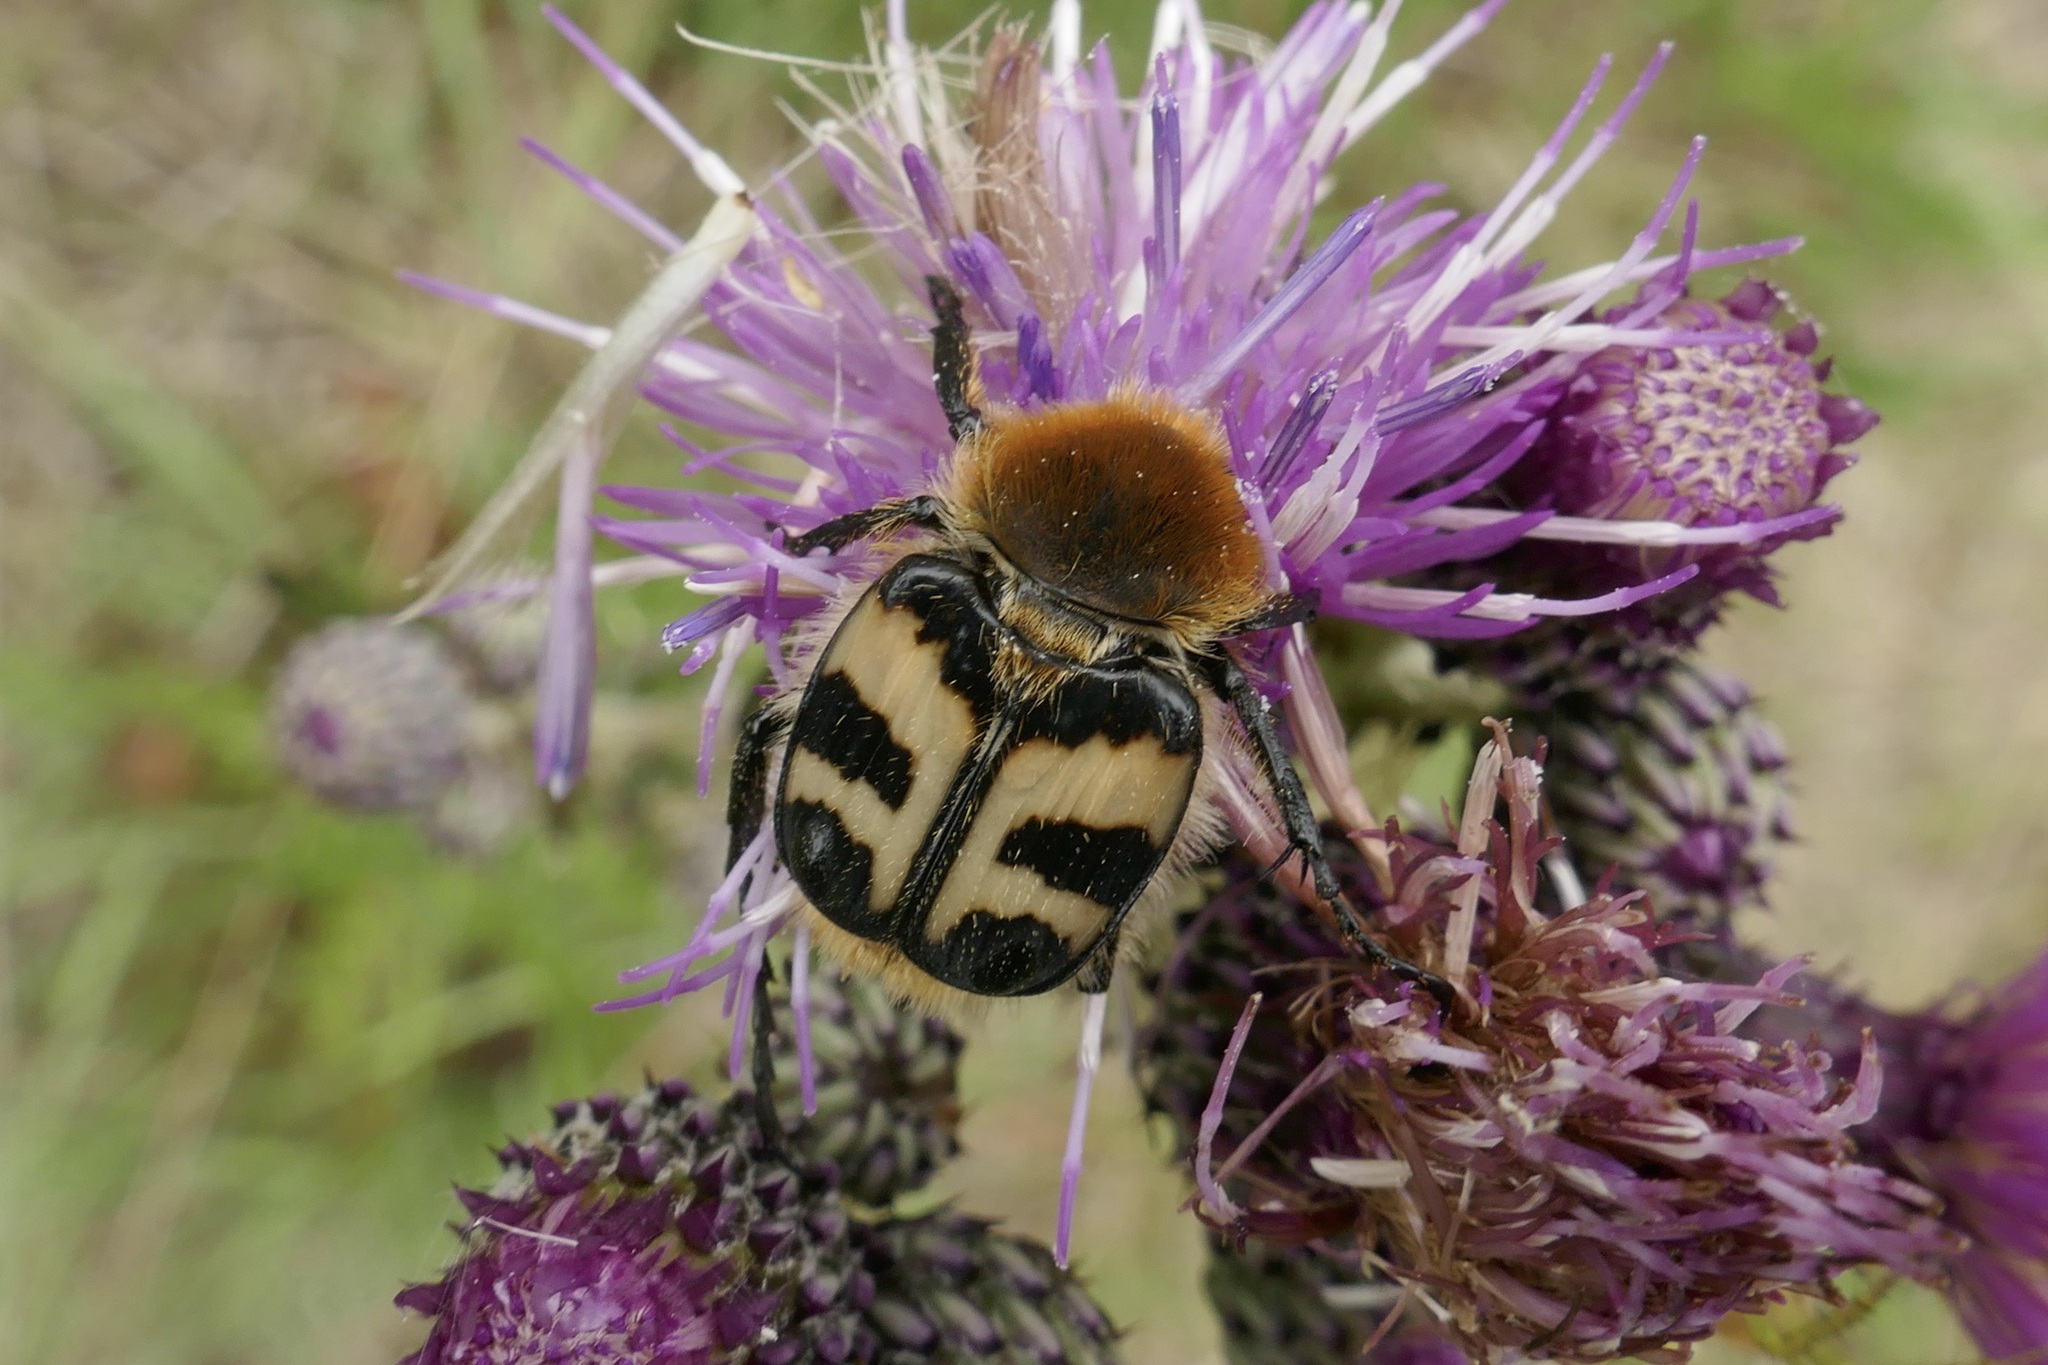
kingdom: Animalia
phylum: Arthropoda
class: Insecta
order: Coleoptera
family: Scarabaeidae
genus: Trichius
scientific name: Trichius fasciatus
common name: Bee beetle
